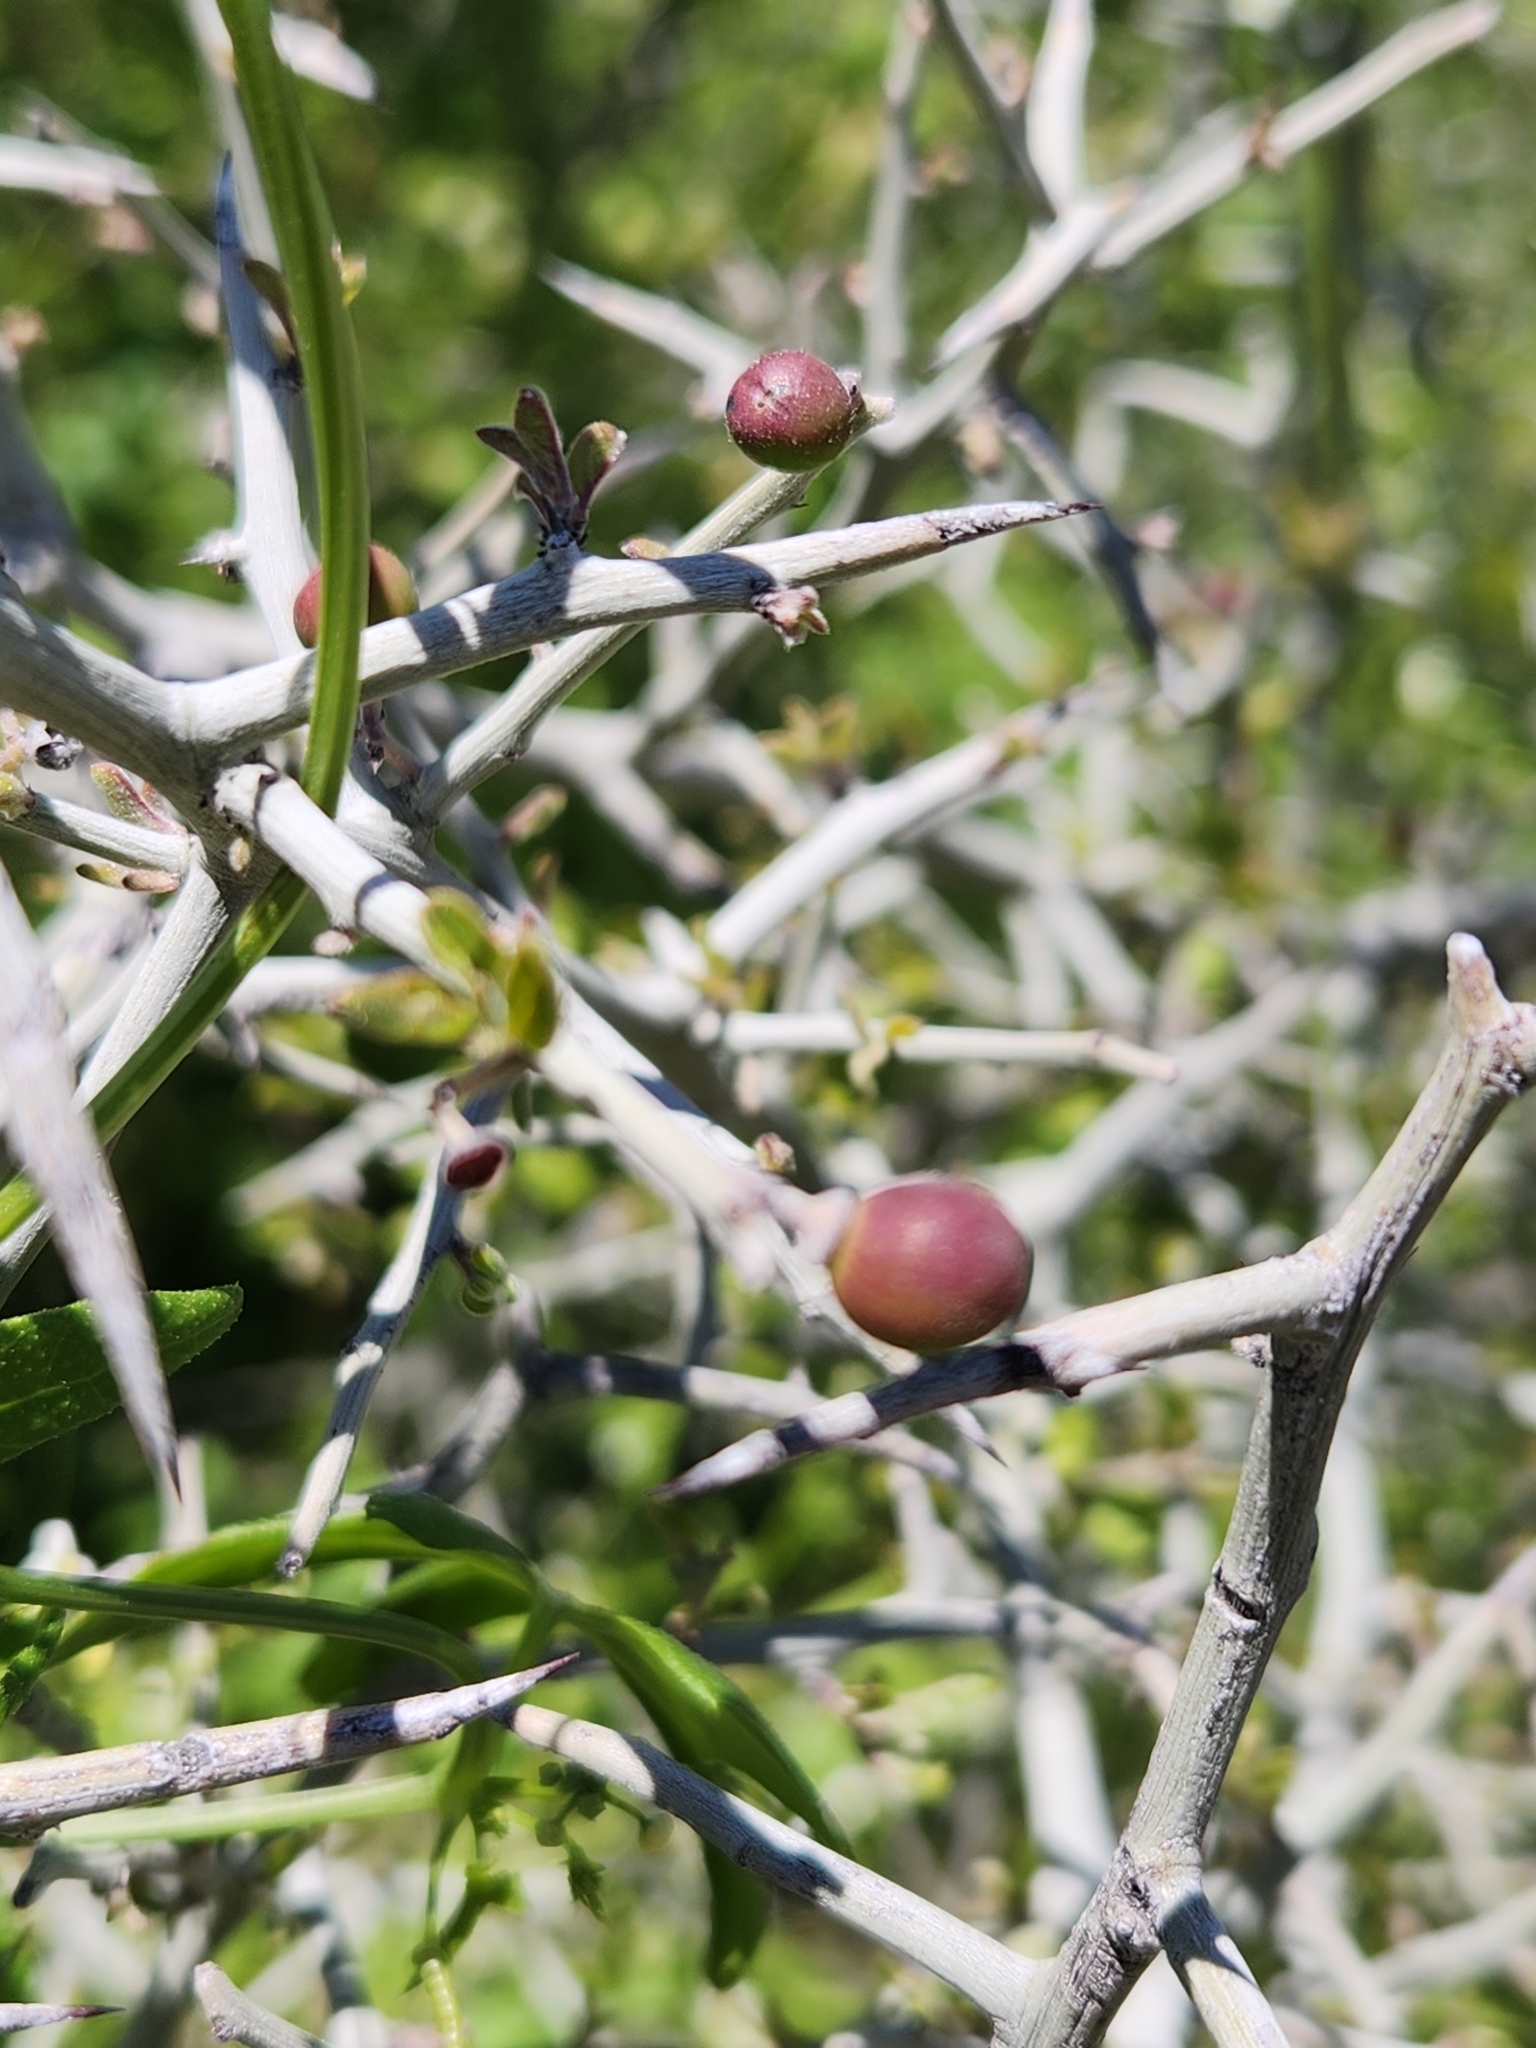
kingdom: Plantae
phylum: Tracheophyta
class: Magnoliopsida
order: Rosales
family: Rhamnaceae
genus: Sarcomphalus
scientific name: Sarcomphalus obtusifolius
